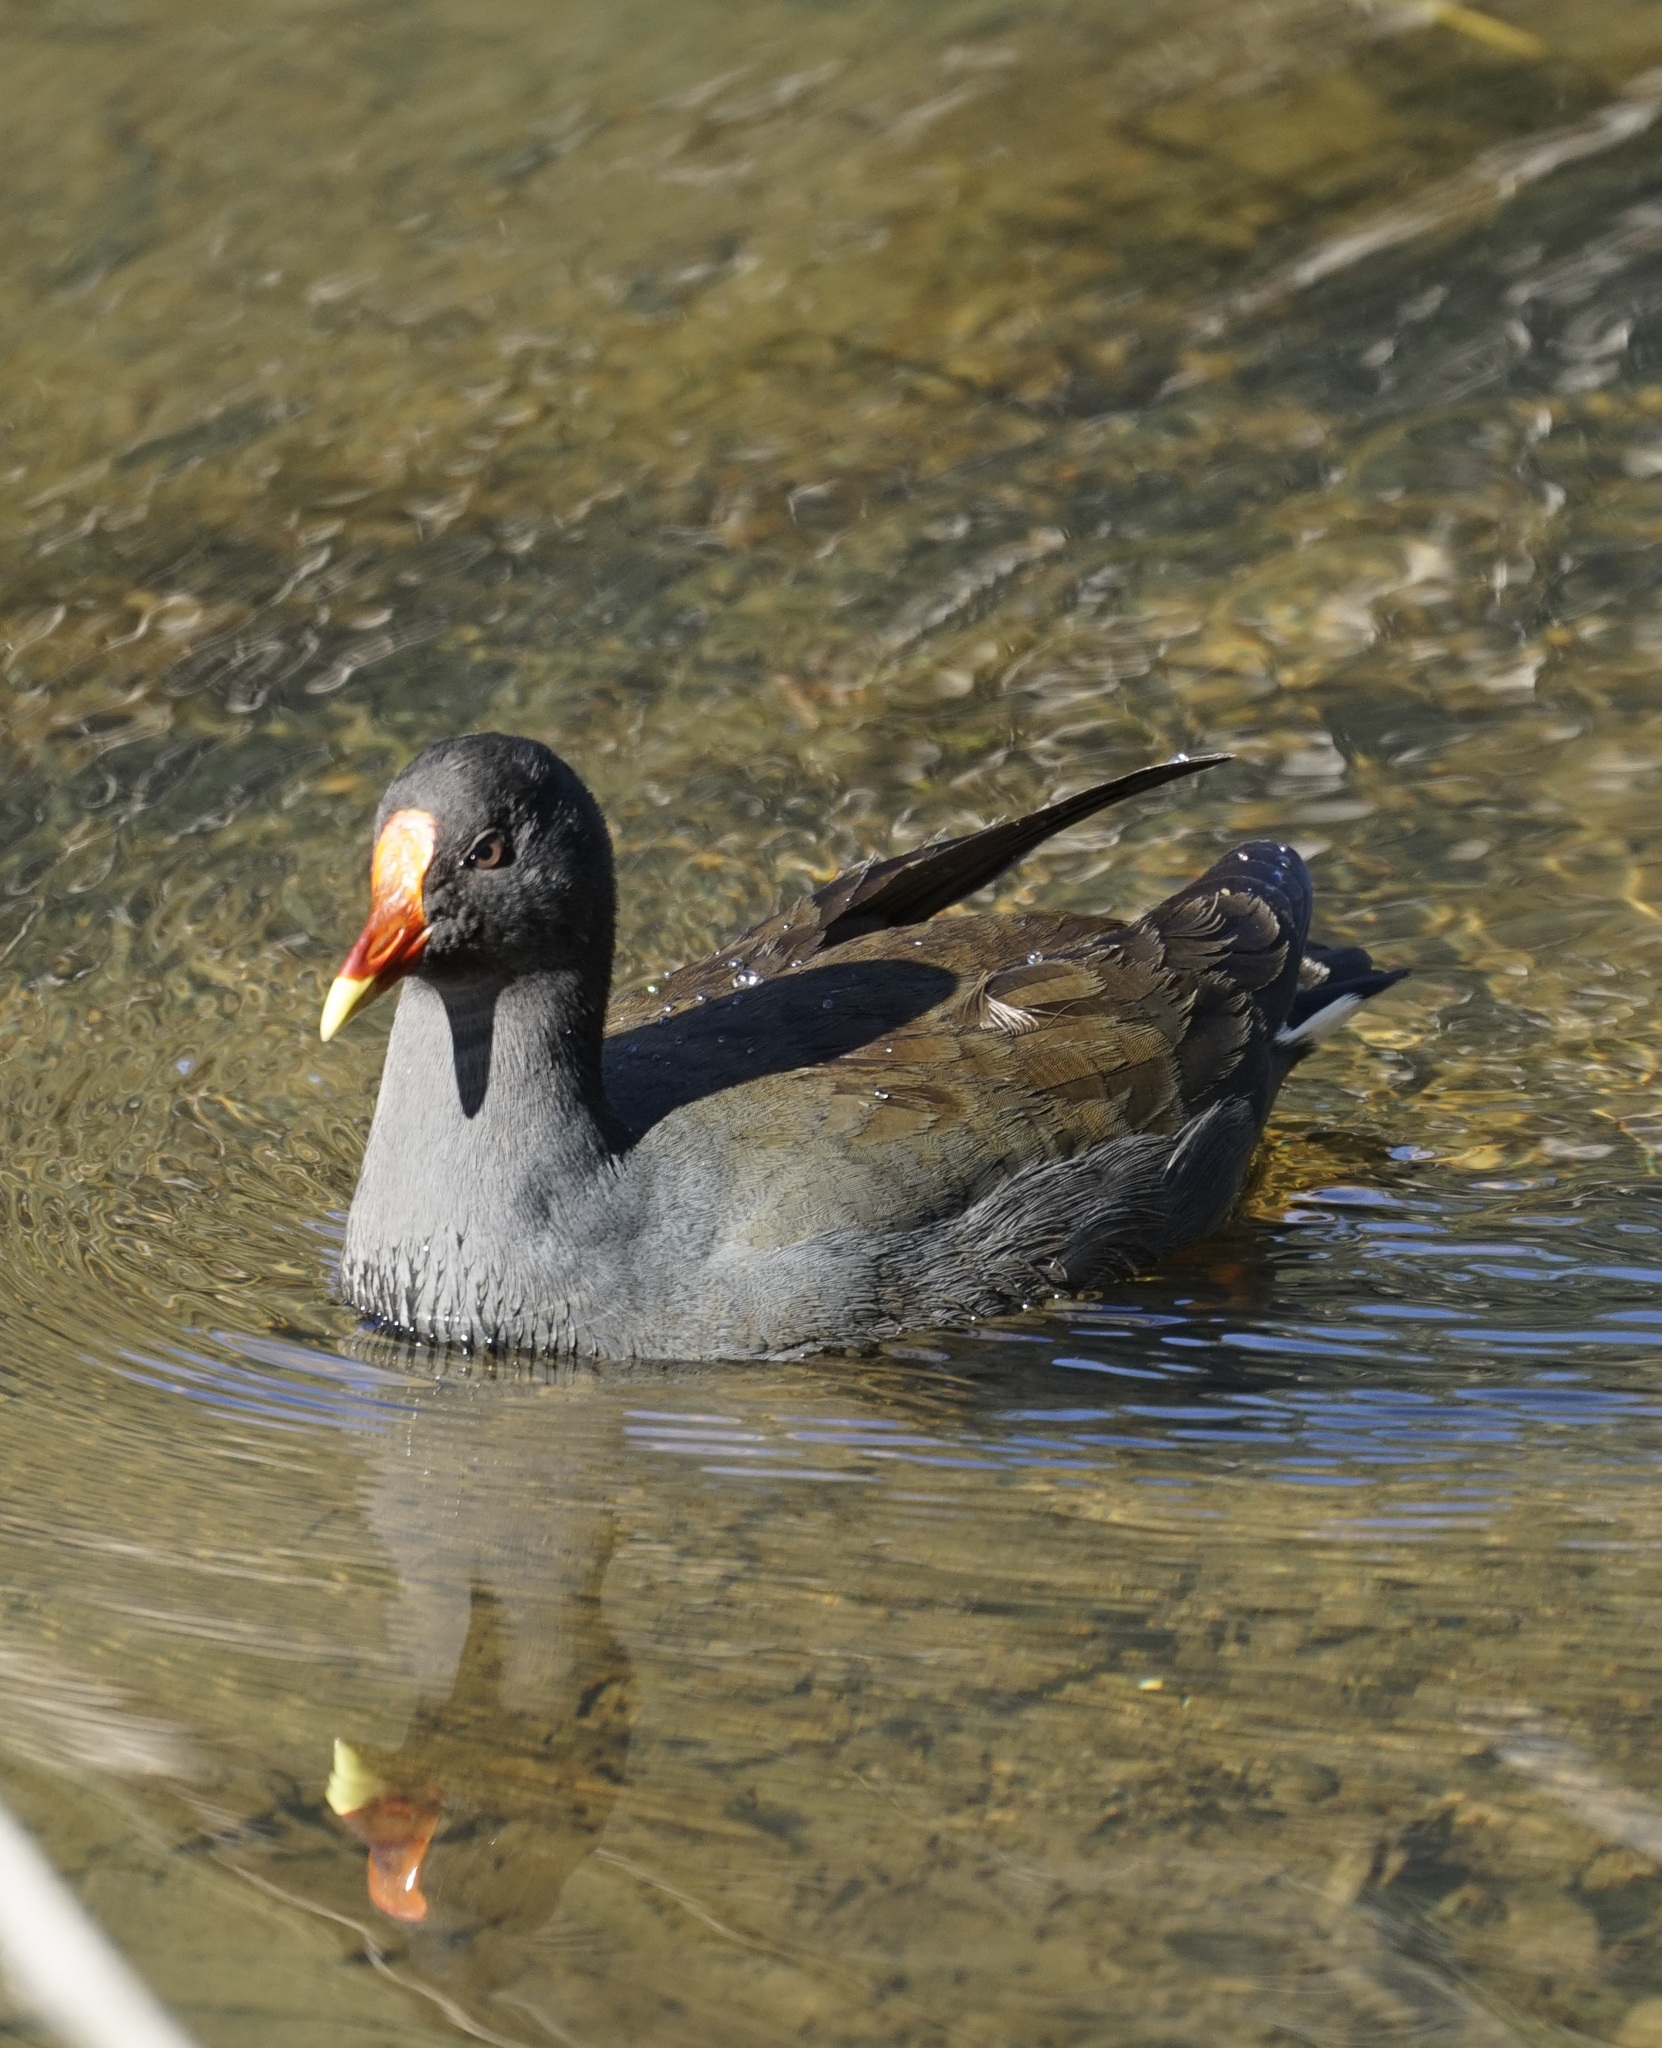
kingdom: Animalia
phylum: Chordata
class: Aves
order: Gruiformes
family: Rallidae
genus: Gallinula
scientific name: Gallinula tenebrosa
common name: Dusky moorhen
